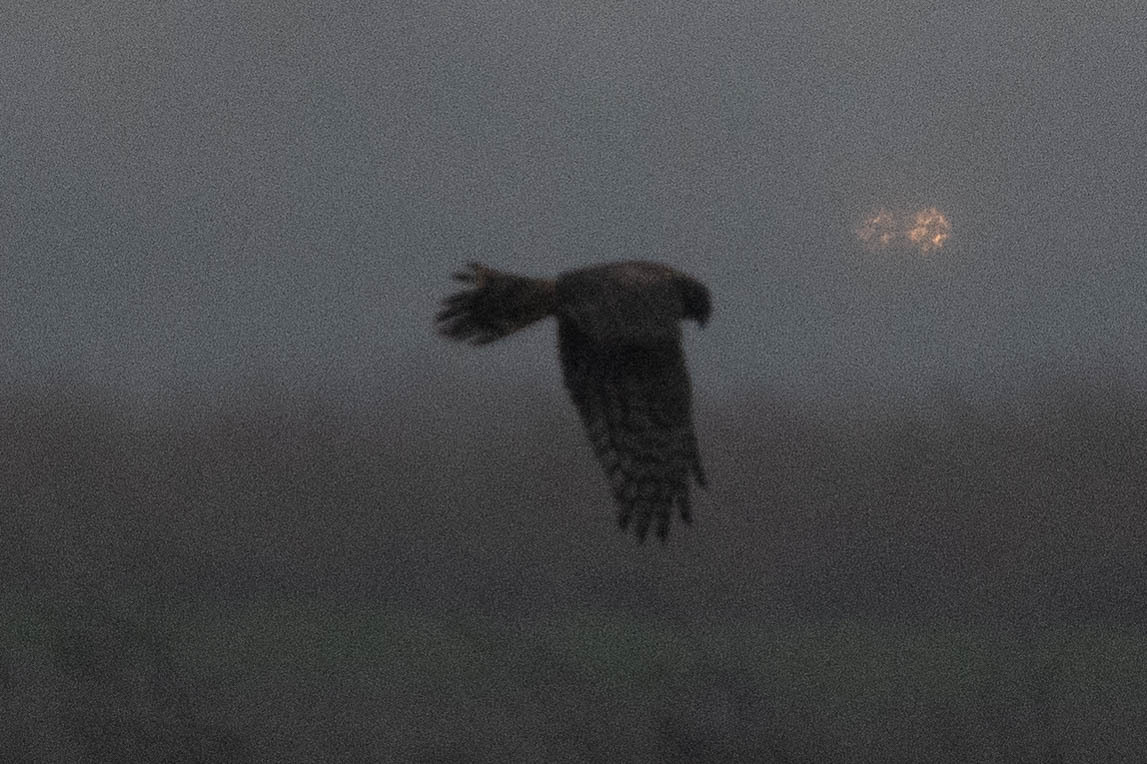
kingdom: Animalia
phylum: Chordata
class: Aves
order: Accipitriformes
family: Accipitridae
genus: Circus
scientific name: Circus cyaneus
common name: Hen harrier
